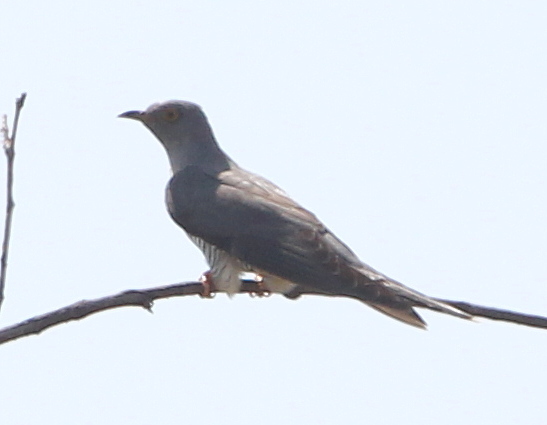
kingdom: Animalia
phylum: Chordata
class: Aves
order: Cuculiformes
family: Cuculidae
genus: Cuculus
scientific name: Cuculus canorus
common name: Common cuckoo
